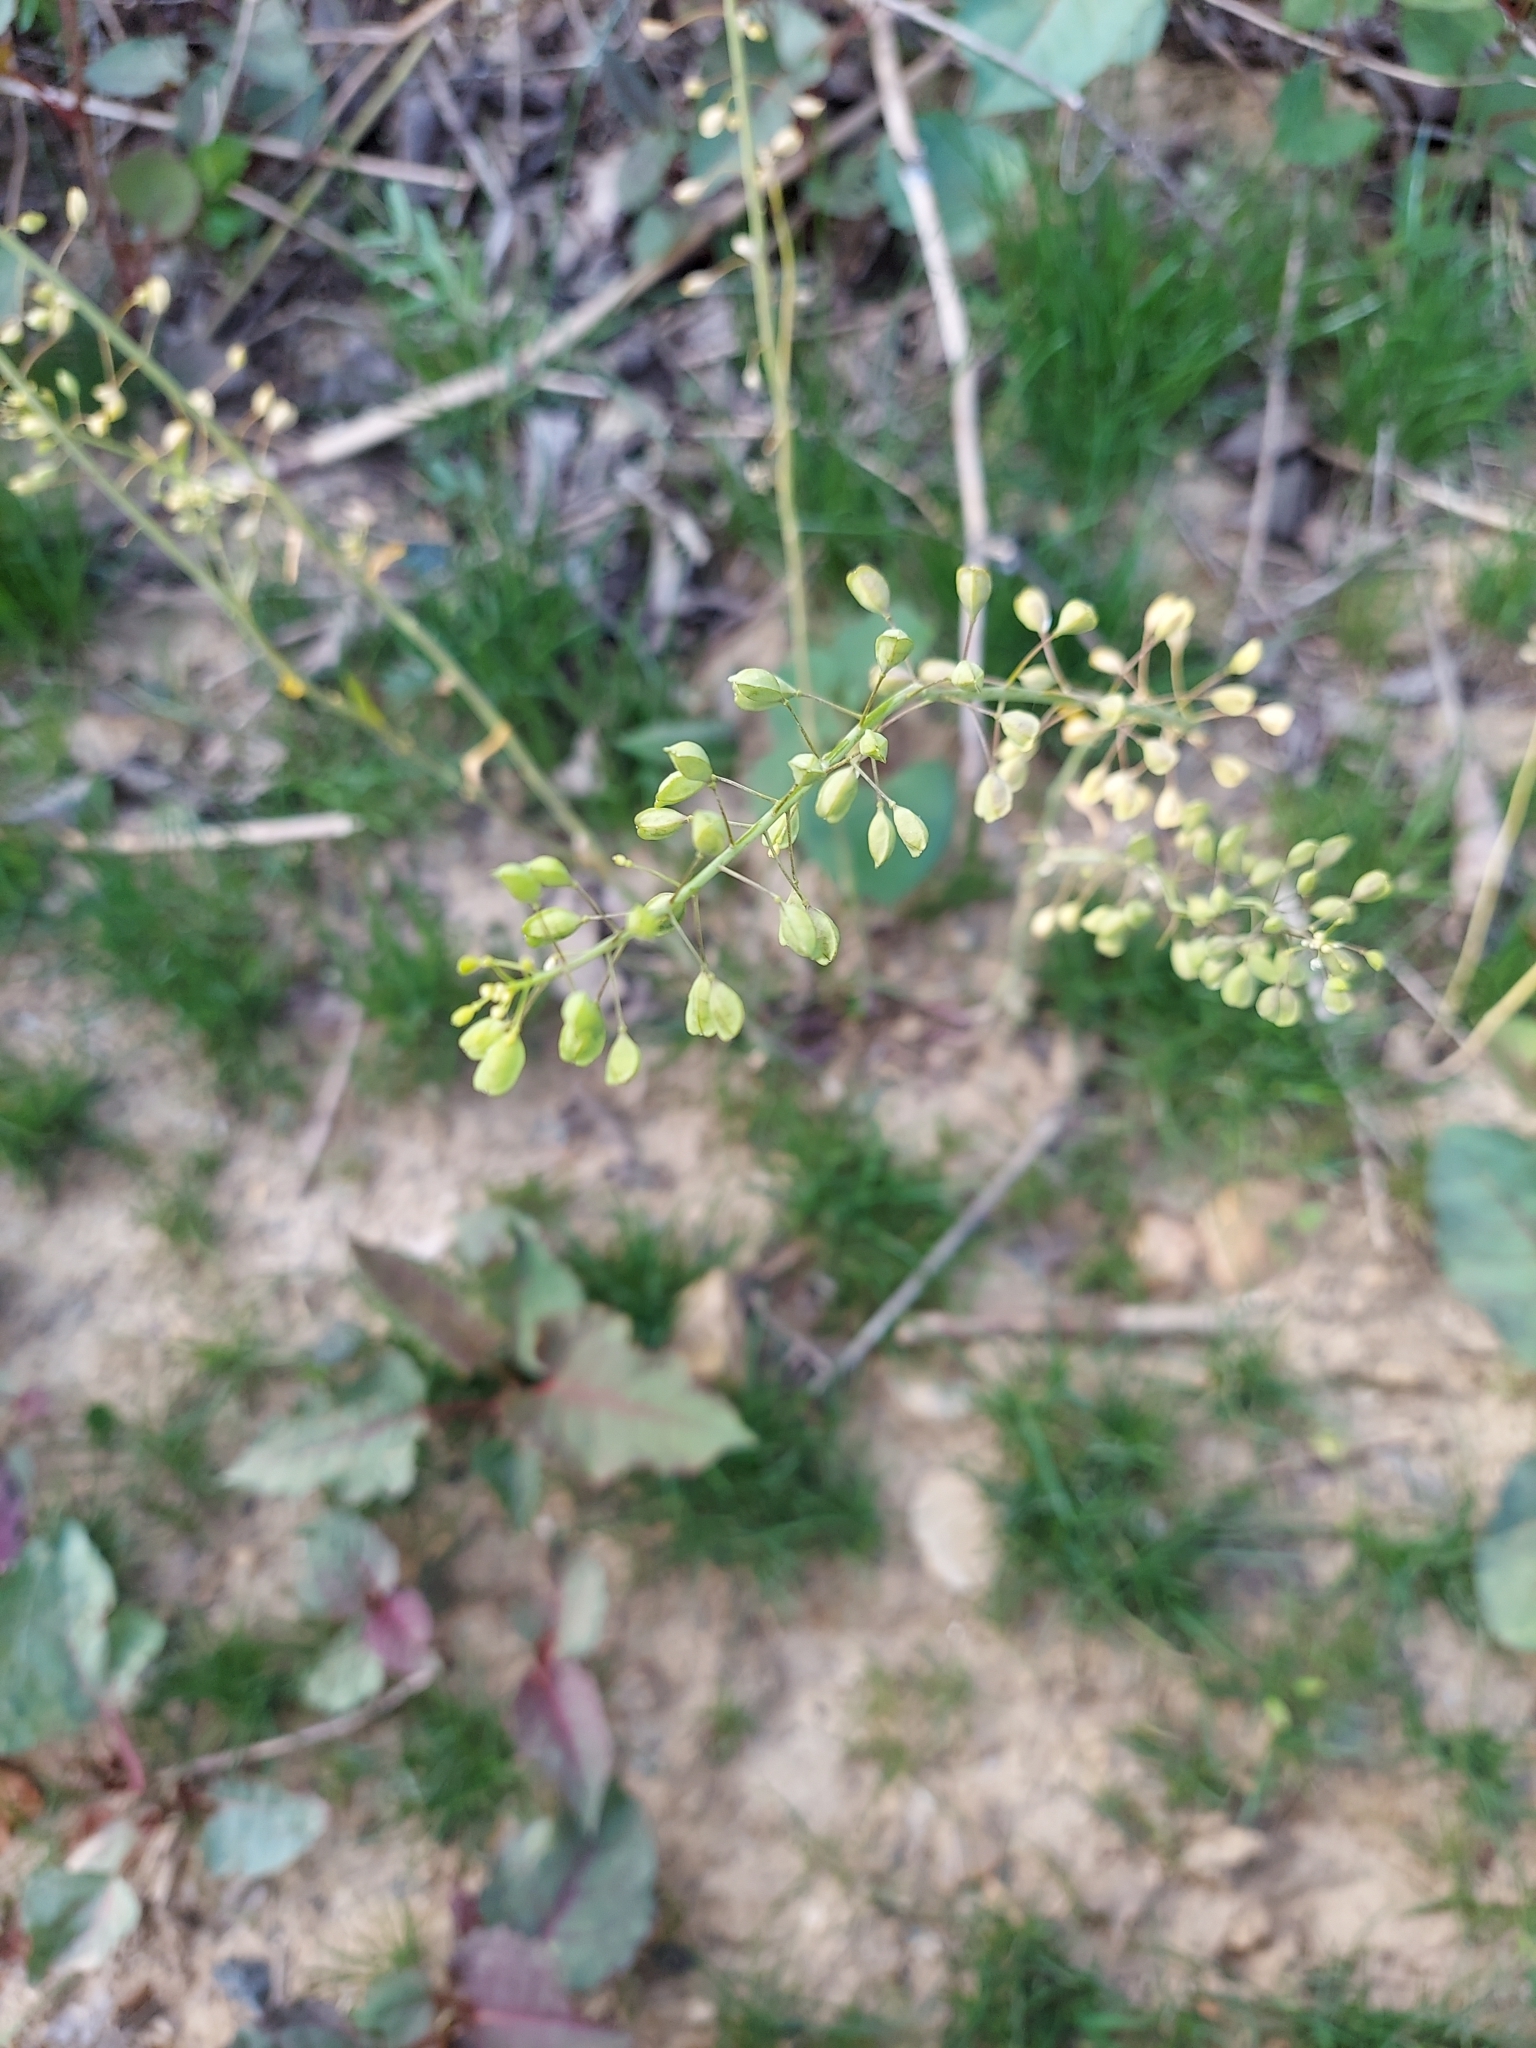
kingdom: Plantae
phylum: Tracheophyta
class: Magnoliopsida
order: Brassicales
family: Brassicaceae
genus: Mummenhoffia
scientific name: Mummenhoffia alliacea
